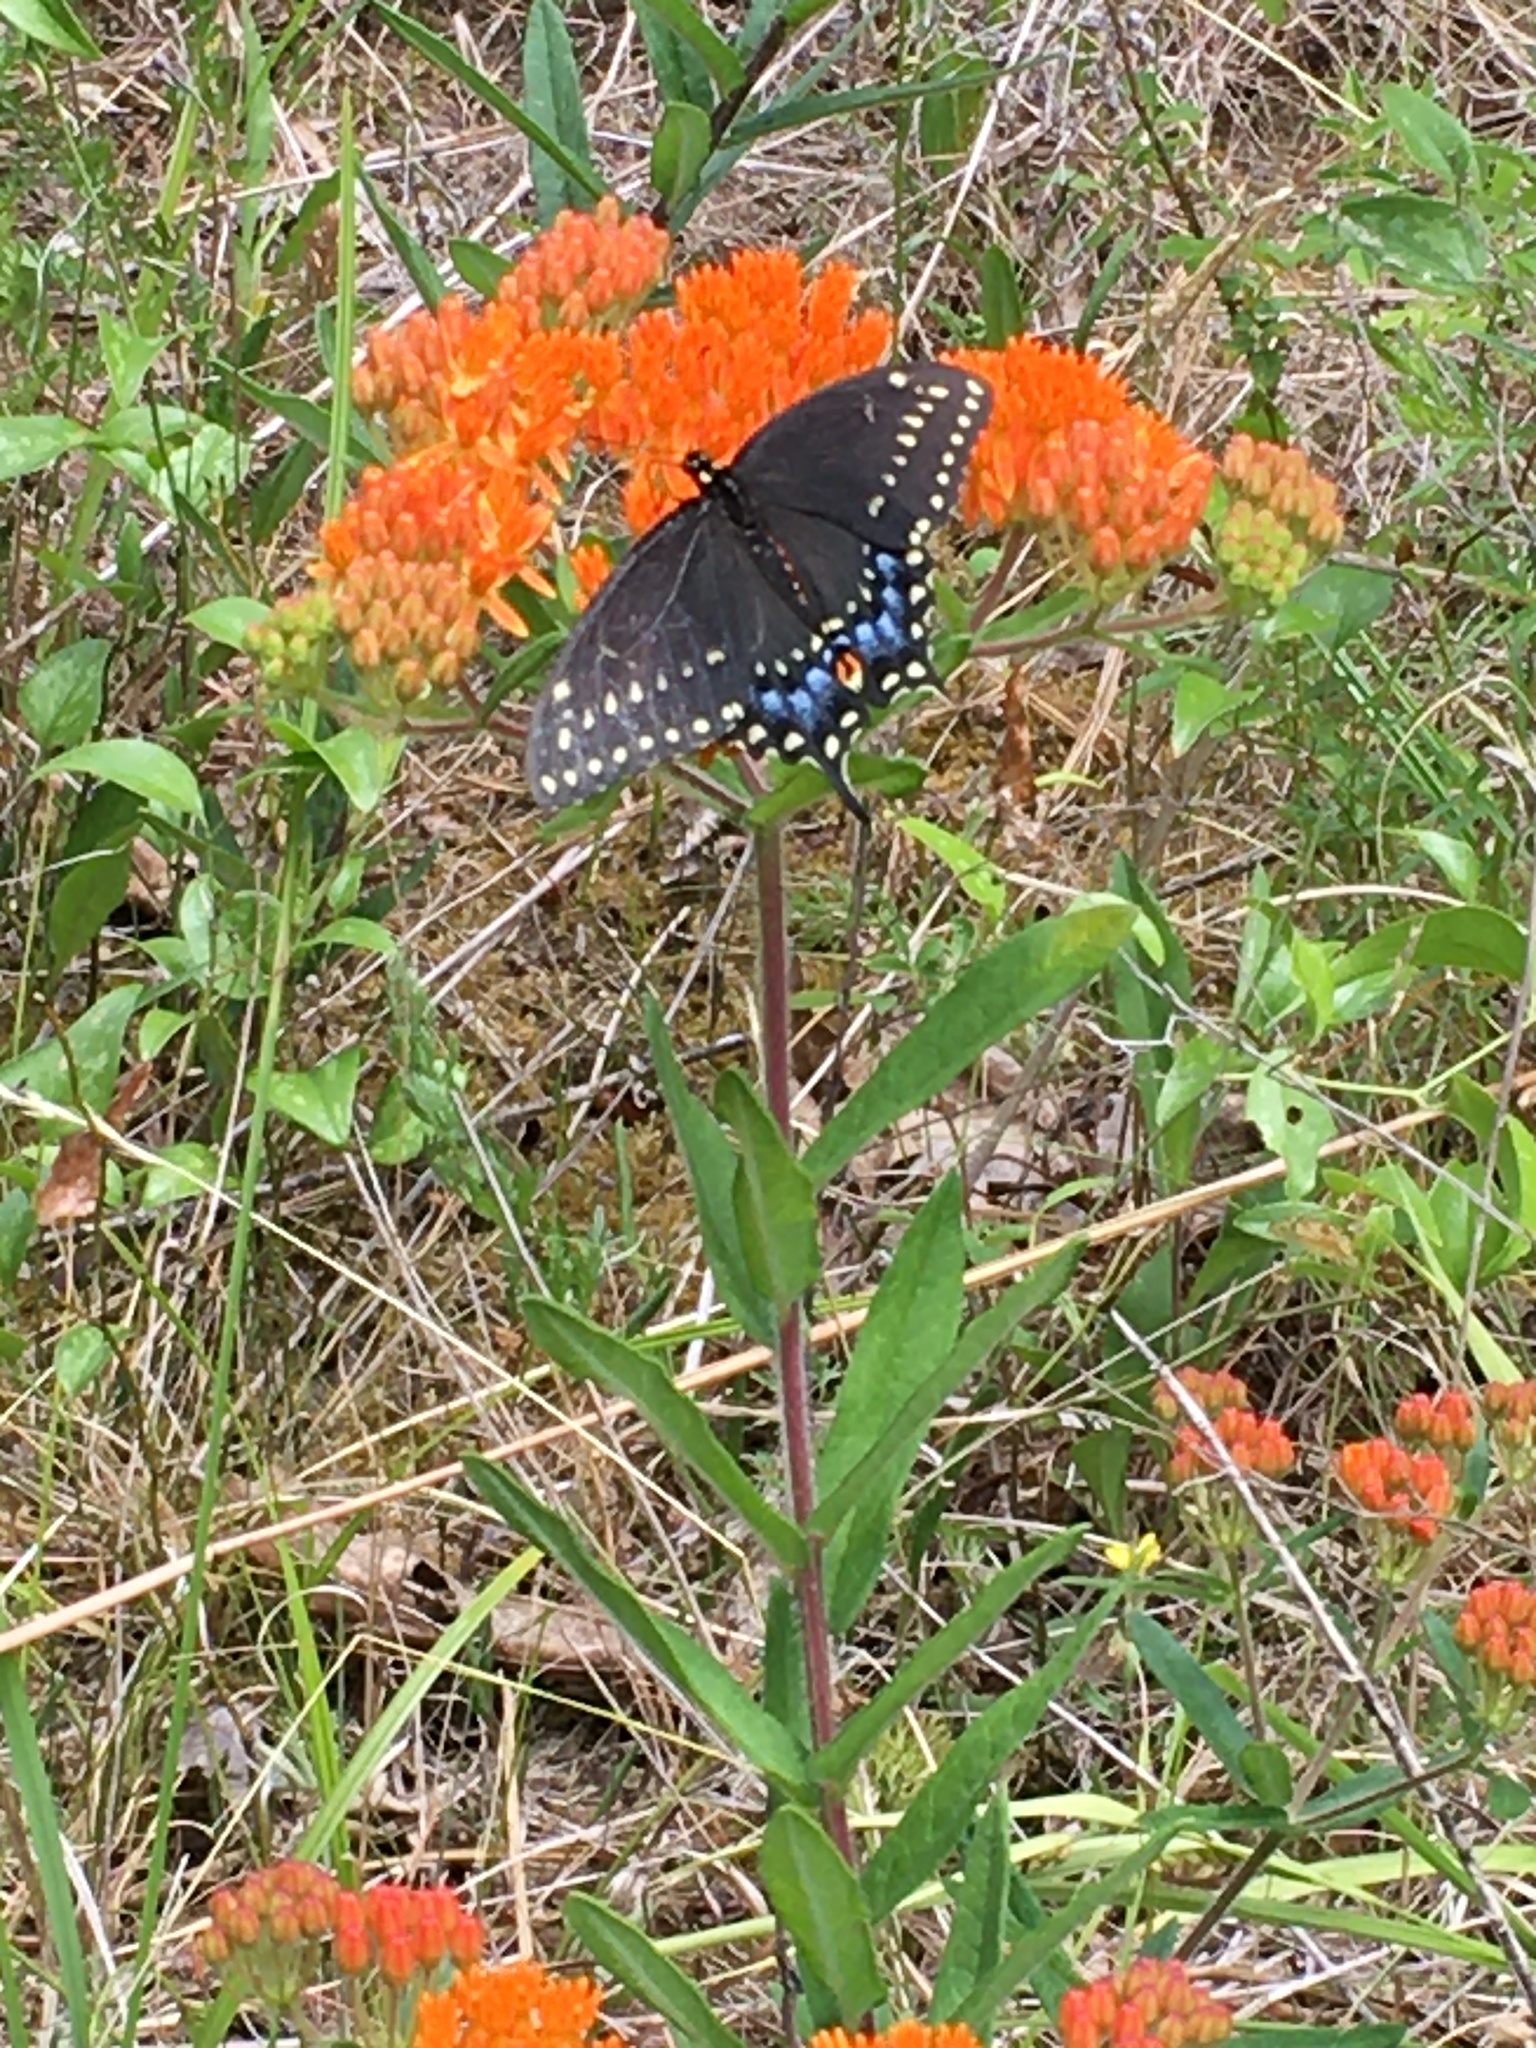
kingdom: Animalia
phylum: Arthropoda
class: Insecta
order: Lepidoptera
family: Papilionidae
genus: Papilio
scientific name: Papilio polyxenes
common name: Black swallowtail
